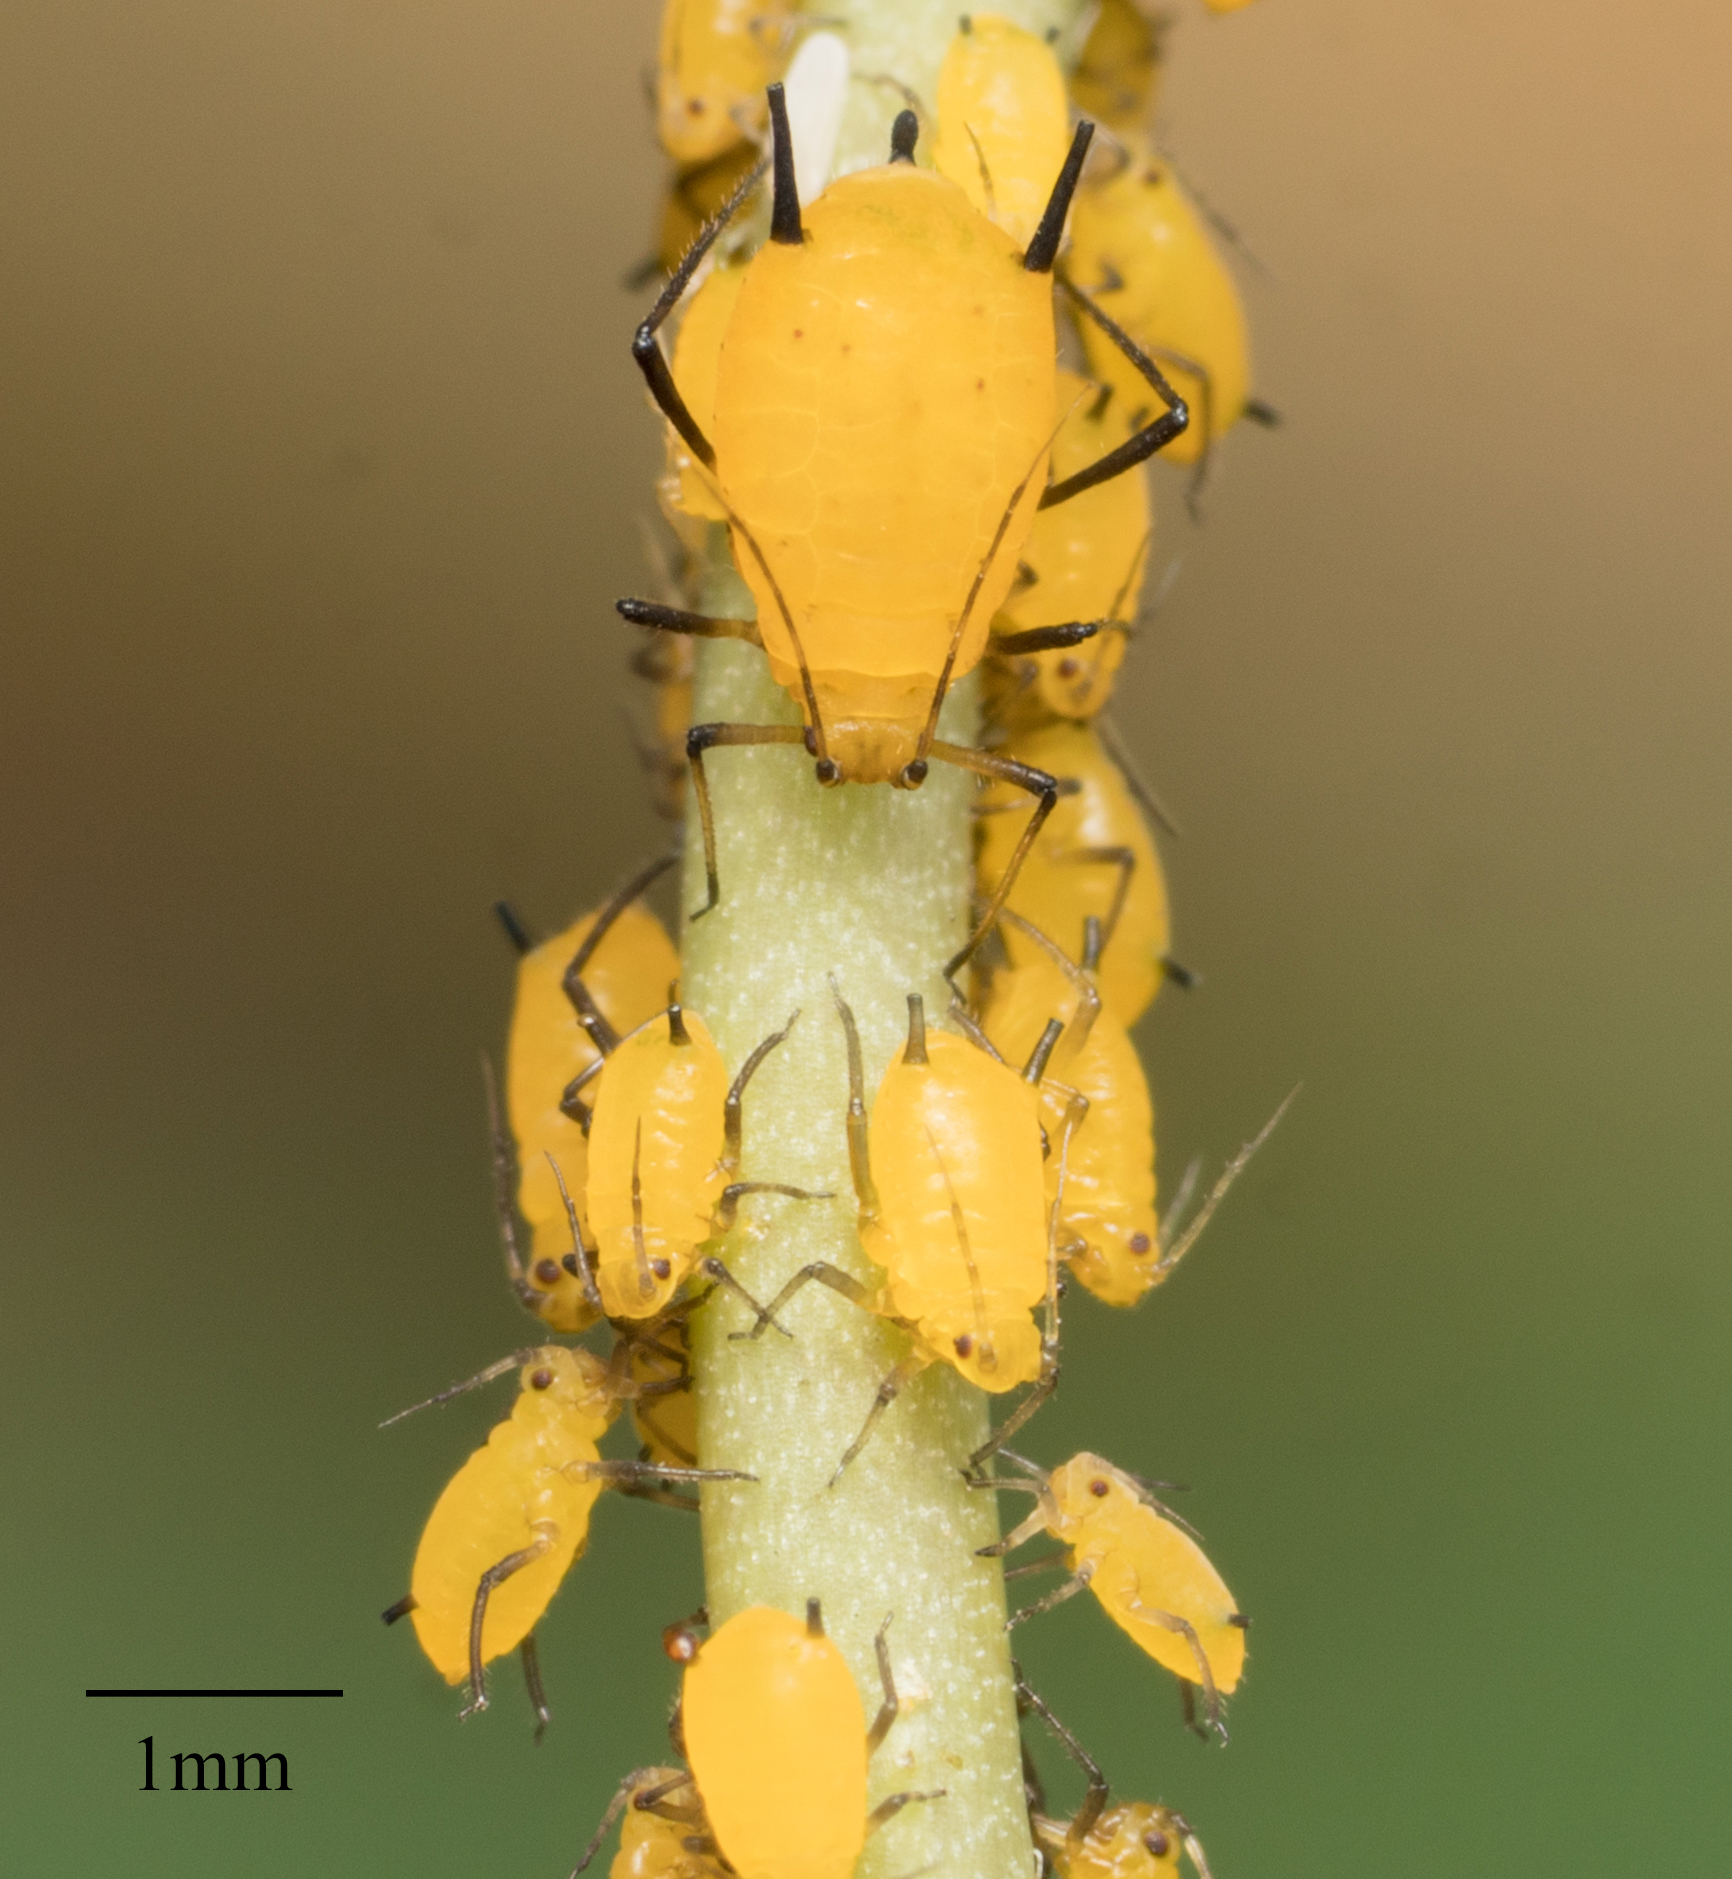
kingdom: Animalia
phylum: Arthropoda
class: Insecta
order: Hemiptera
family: Aphididae
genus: Aphis
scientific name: Aphis nerii
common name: Oleander aphid
